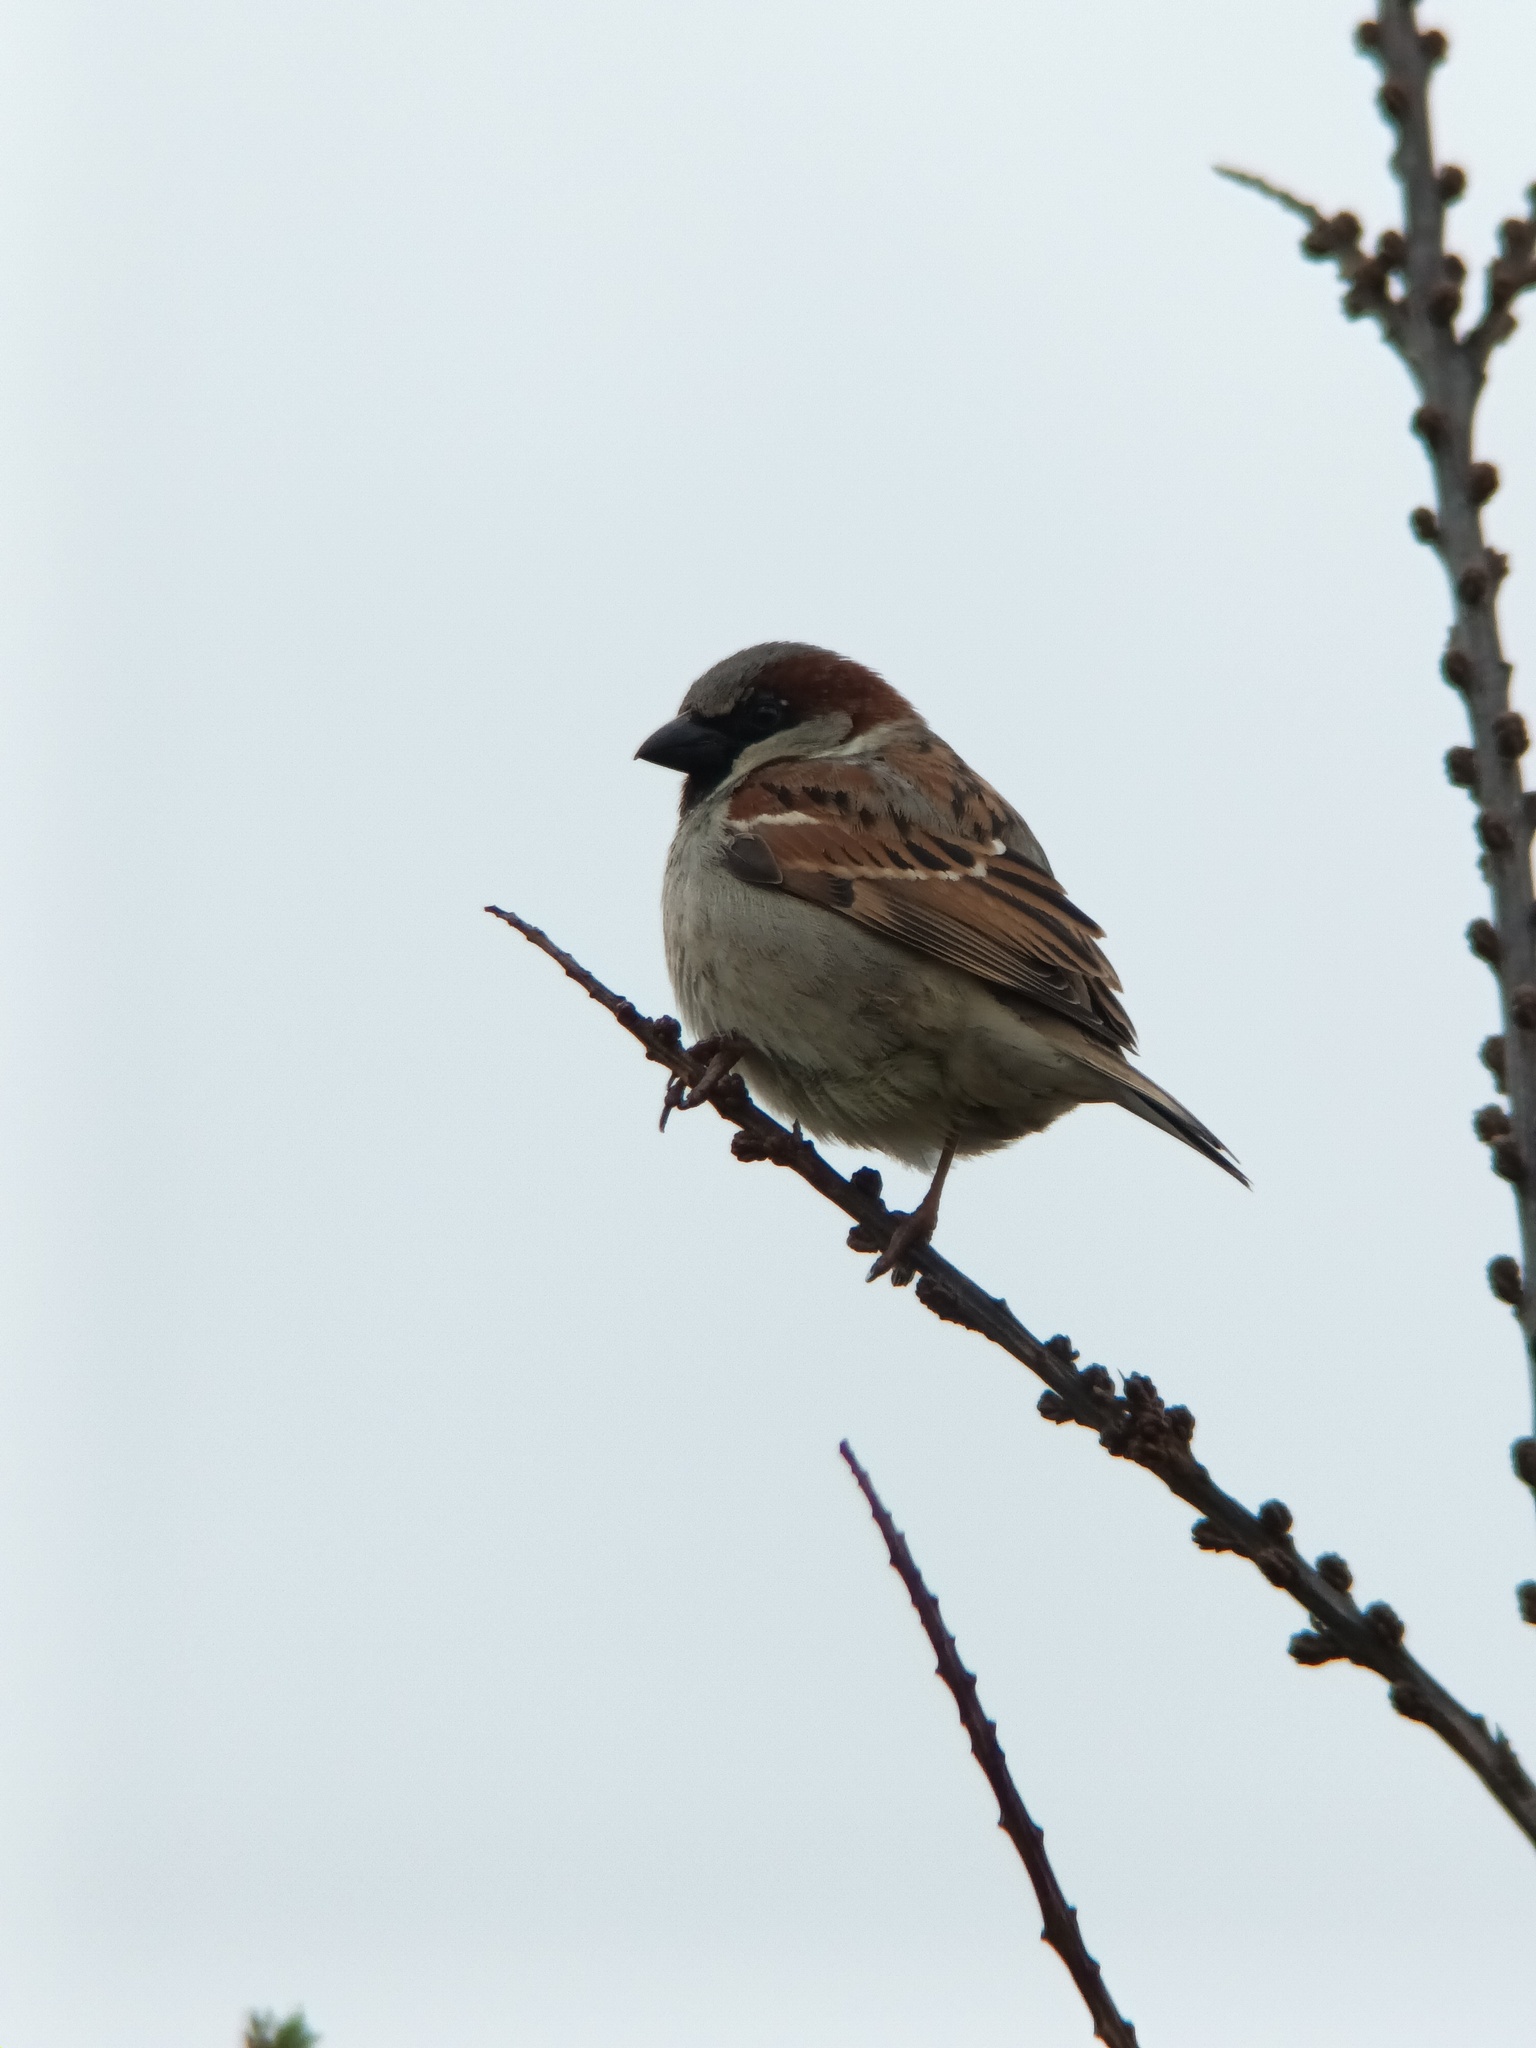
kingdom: Animalia
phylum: Chordata
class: Aves
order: Passeriformes
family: Passeridae
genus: Passer
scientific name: Passer domesticus
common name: House sparrow
